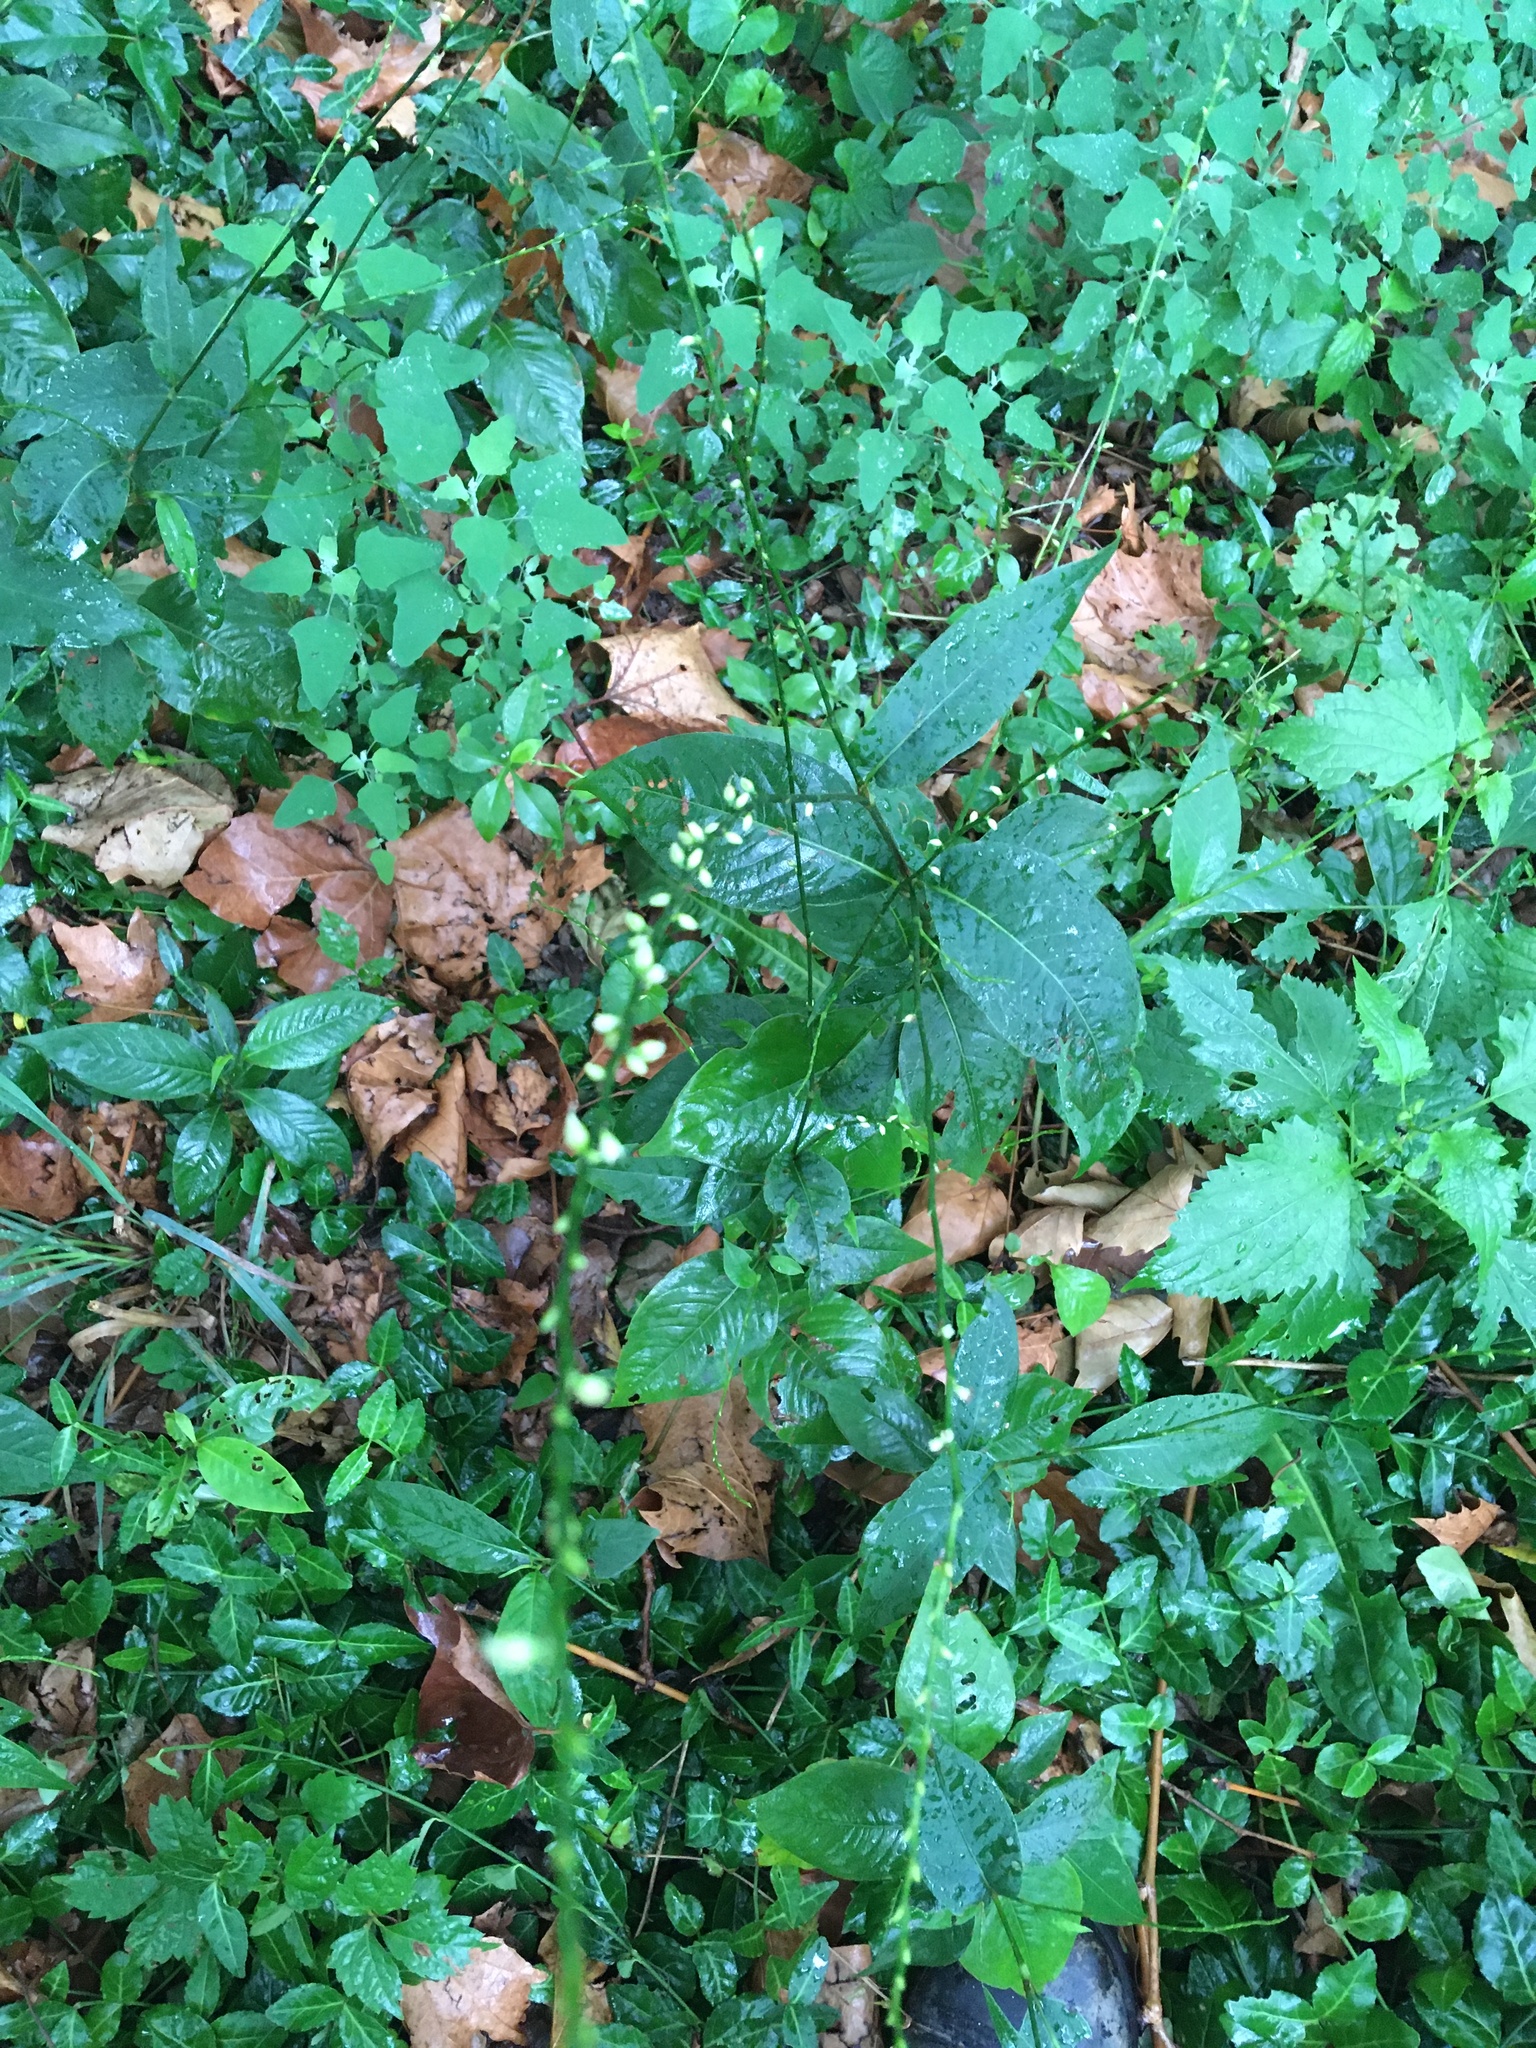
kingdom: Plantae
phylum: Tracheophyta
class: Magnoliopsida
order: Caryophyllales
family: Polygonaceae
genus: Persicaria
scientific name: Persicaria virginiana
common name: Jumpseed
